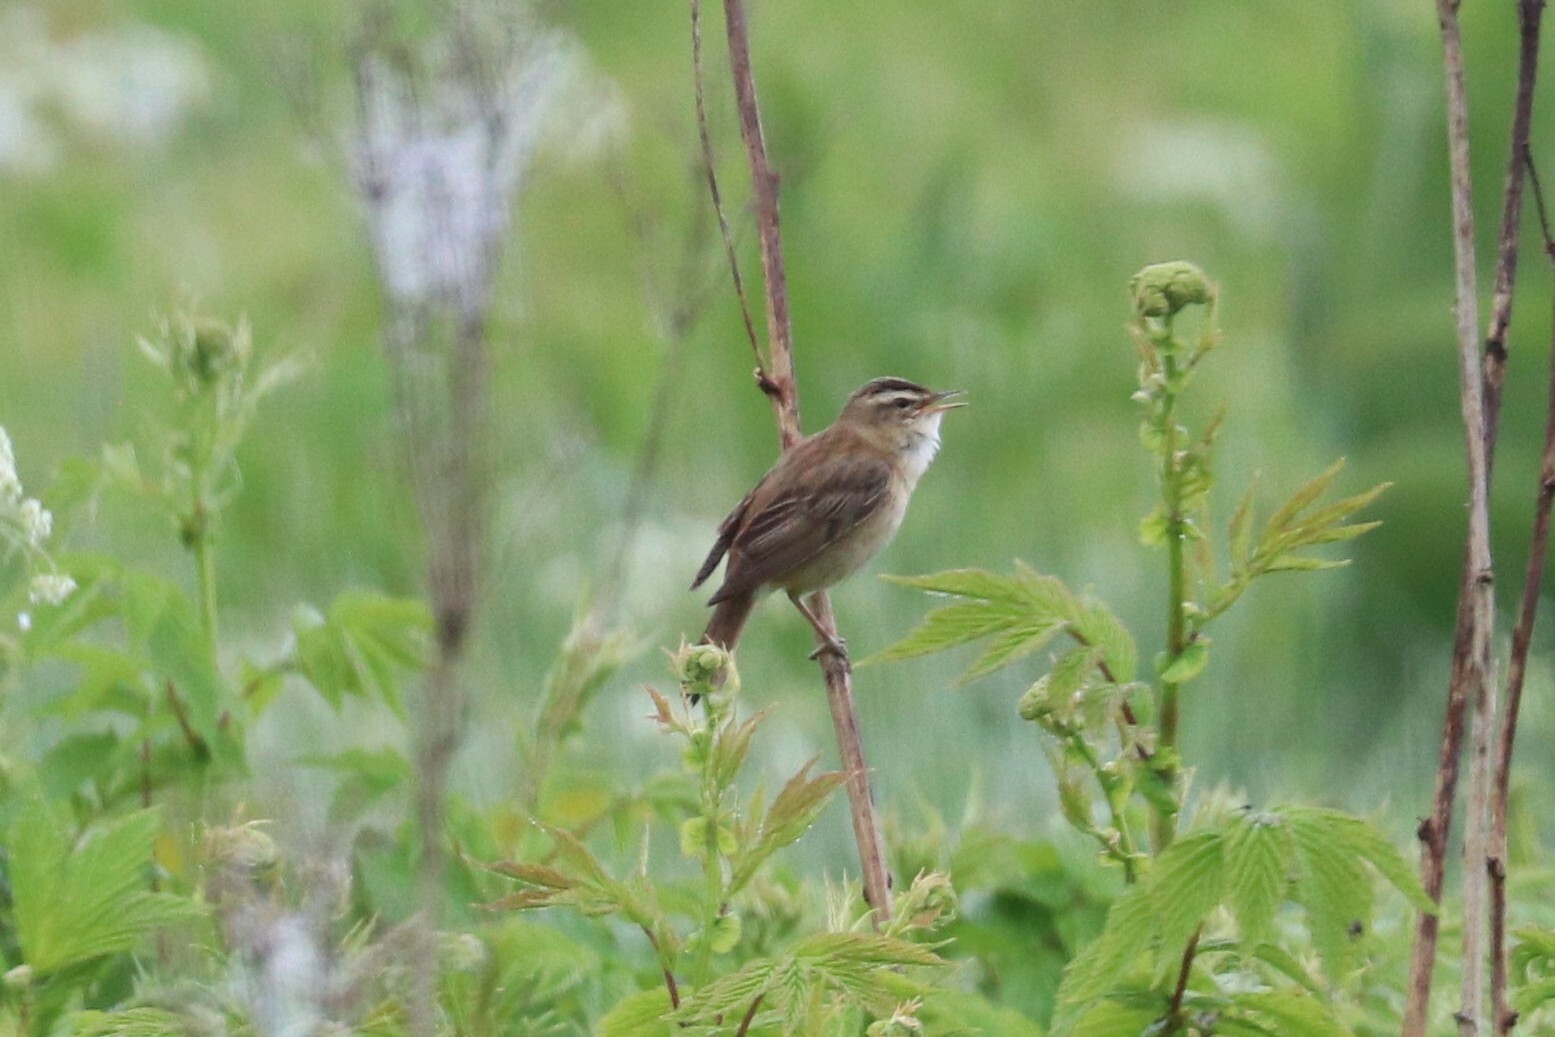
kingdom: Animalia
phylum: Chordata
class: Aves
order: Passeriformes
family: Acrocephalidae
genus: Acrocephalus
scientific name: Acrocephalus schoenobaenus
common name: Sedge warbler
